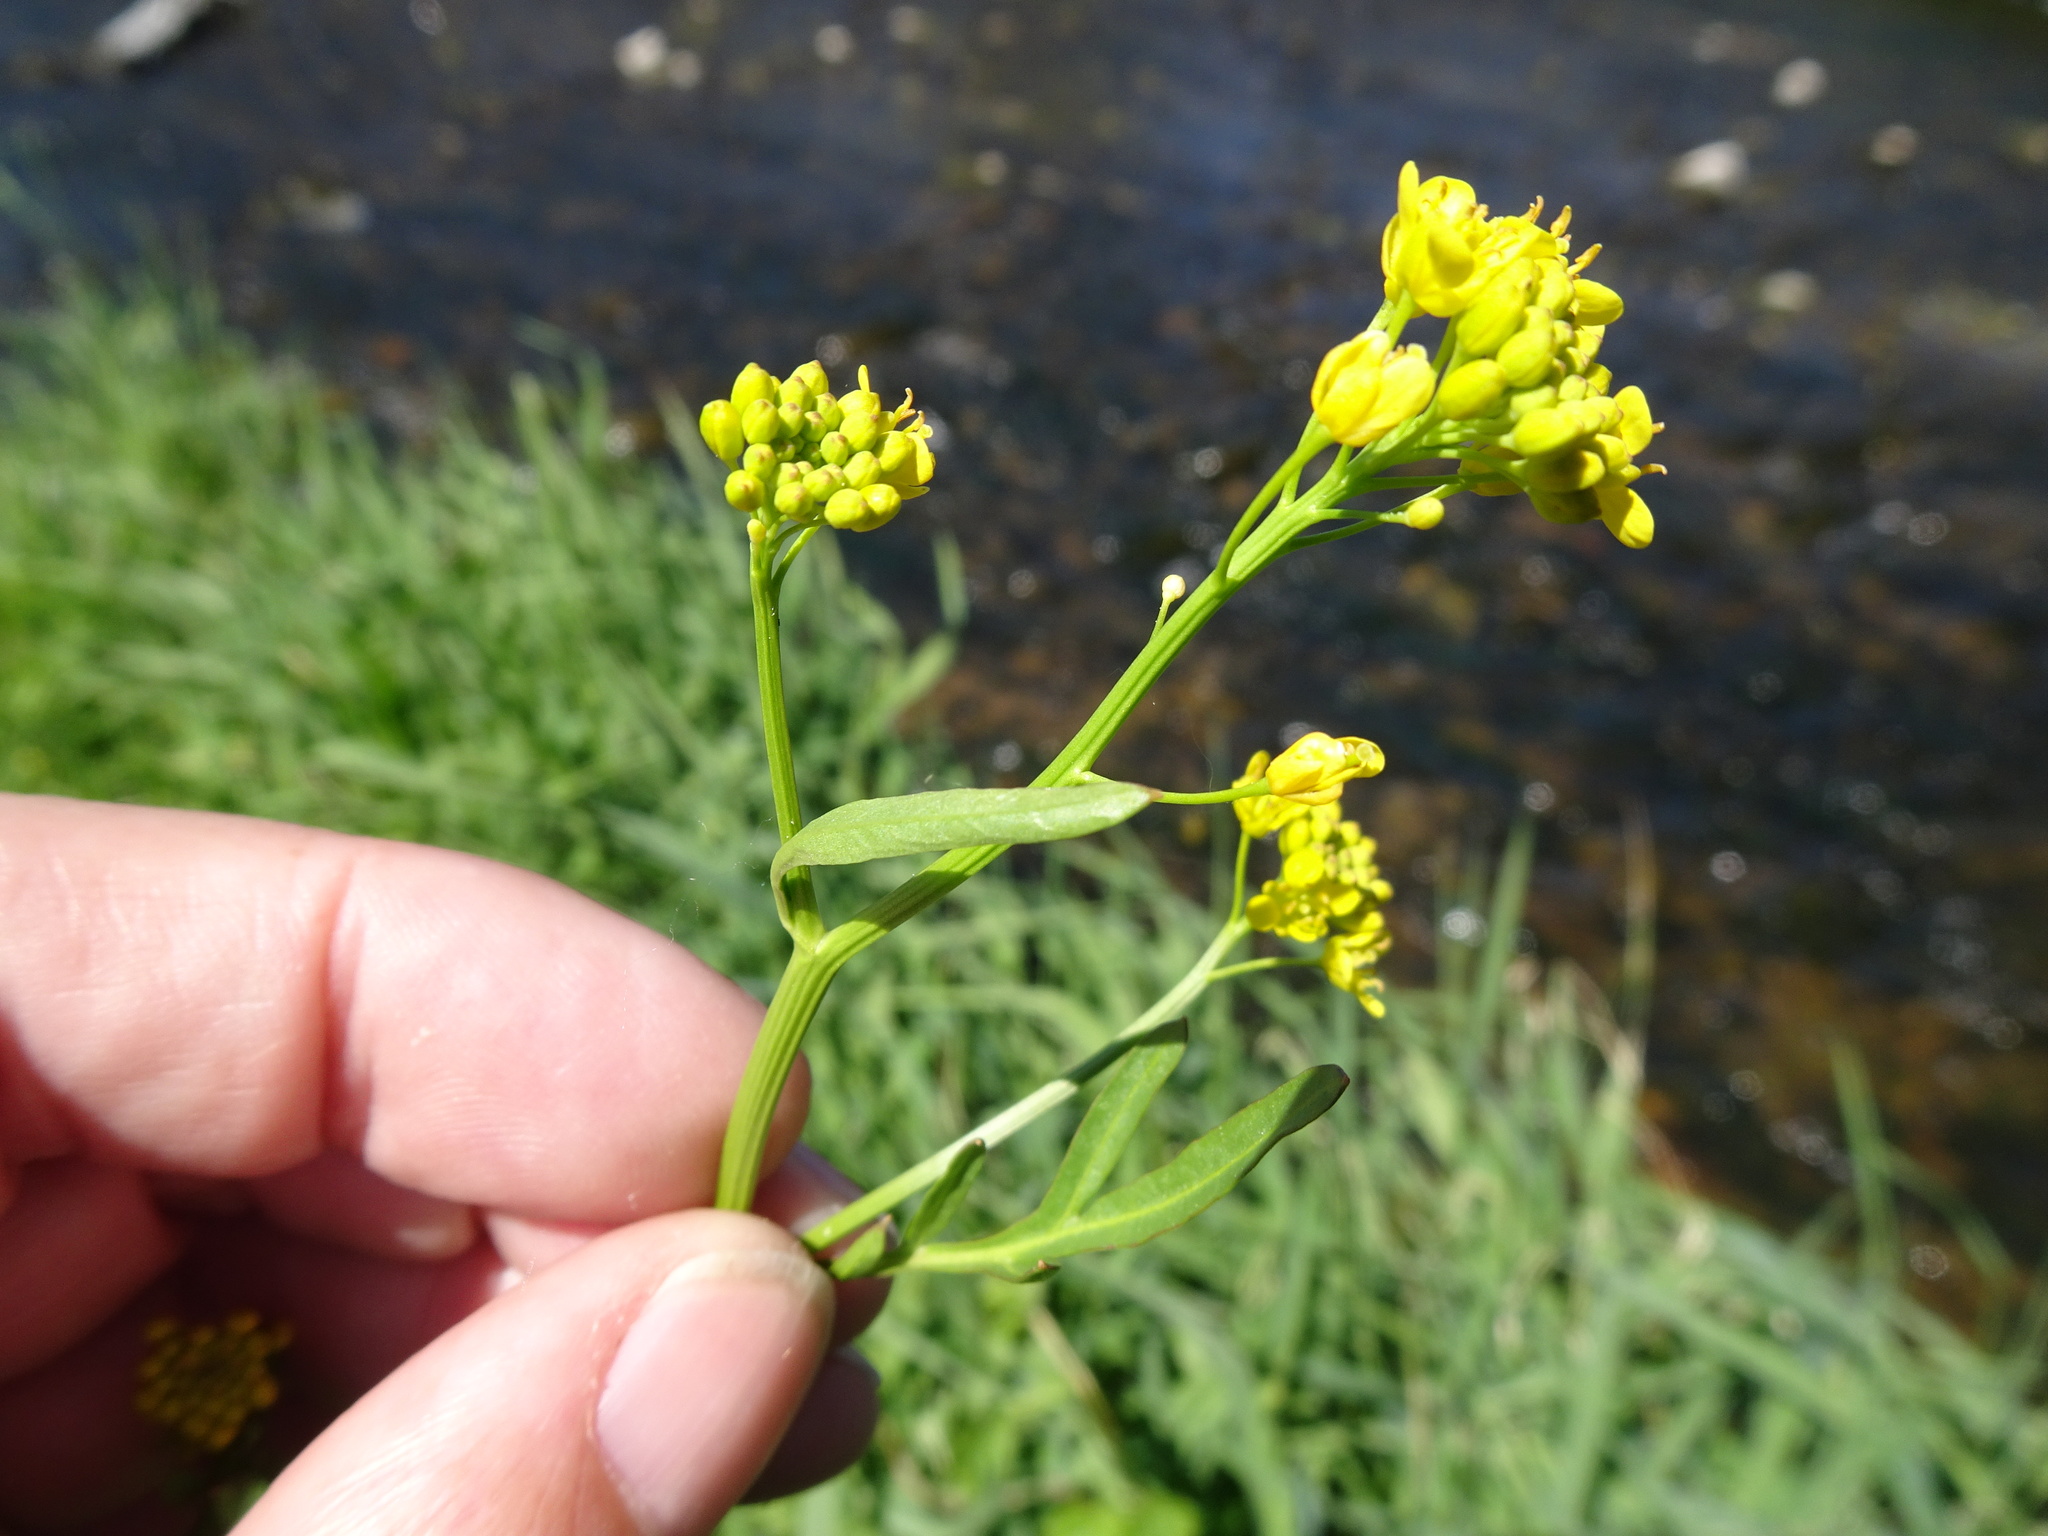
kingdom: Plantae
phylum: Tracheophyta
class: Magnoliopsida
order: Brassicales
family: Brassicaceae
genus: Rorippa
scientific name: Rorippa sylvestris
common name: Creeping yellowcress
